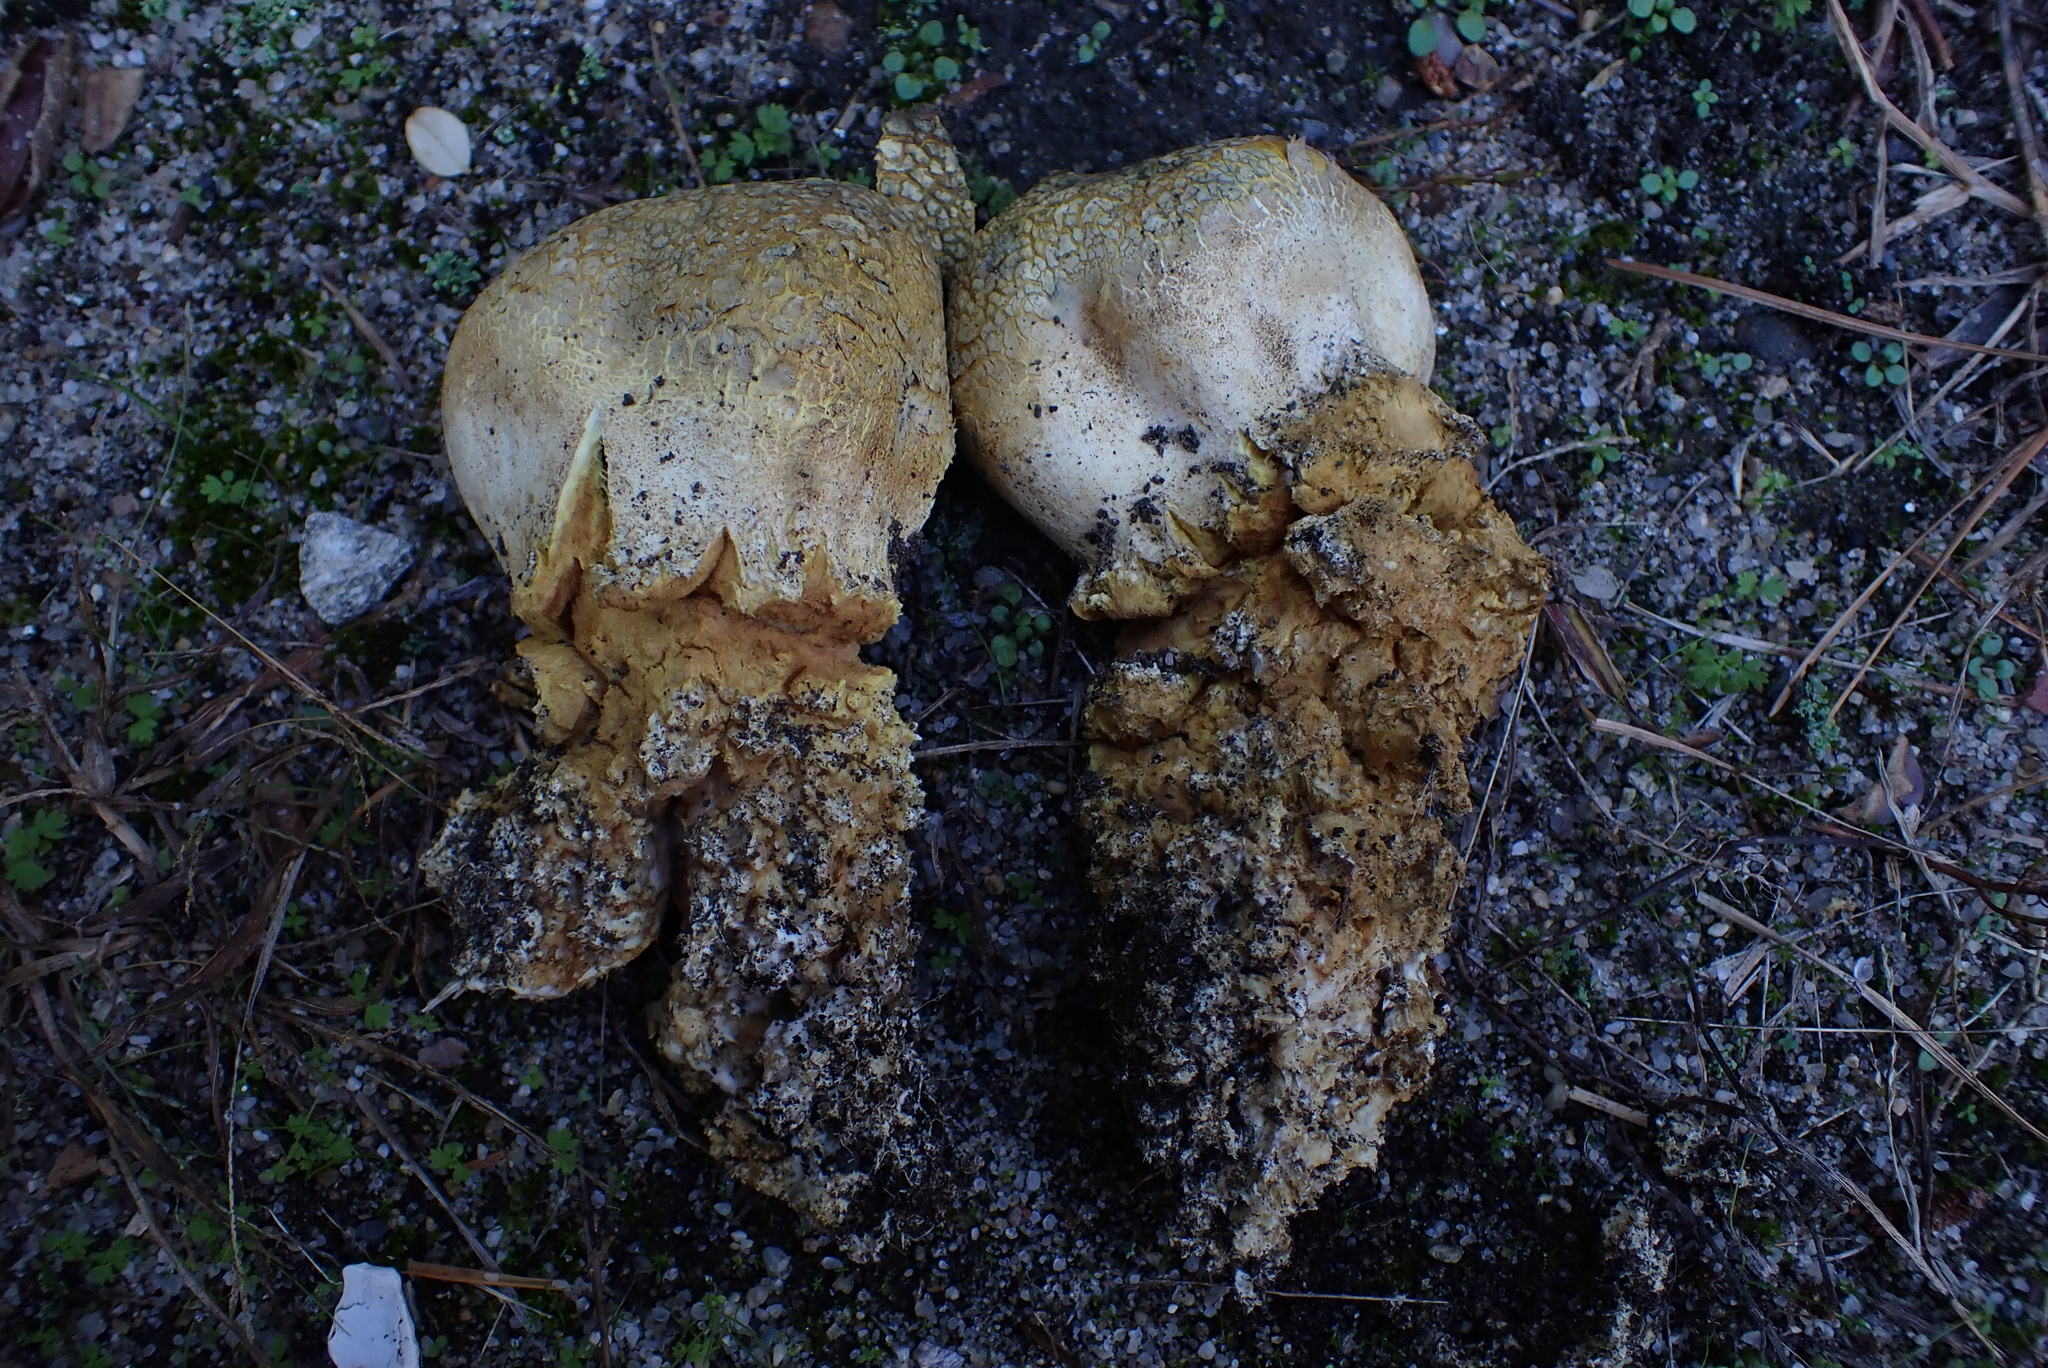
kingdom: Fungi
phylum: Basidiomycota
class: Agaricomycetes
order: Boletales
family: Sclerodermataceae
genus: Scleroderma
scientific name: Scleroderma meridionale
